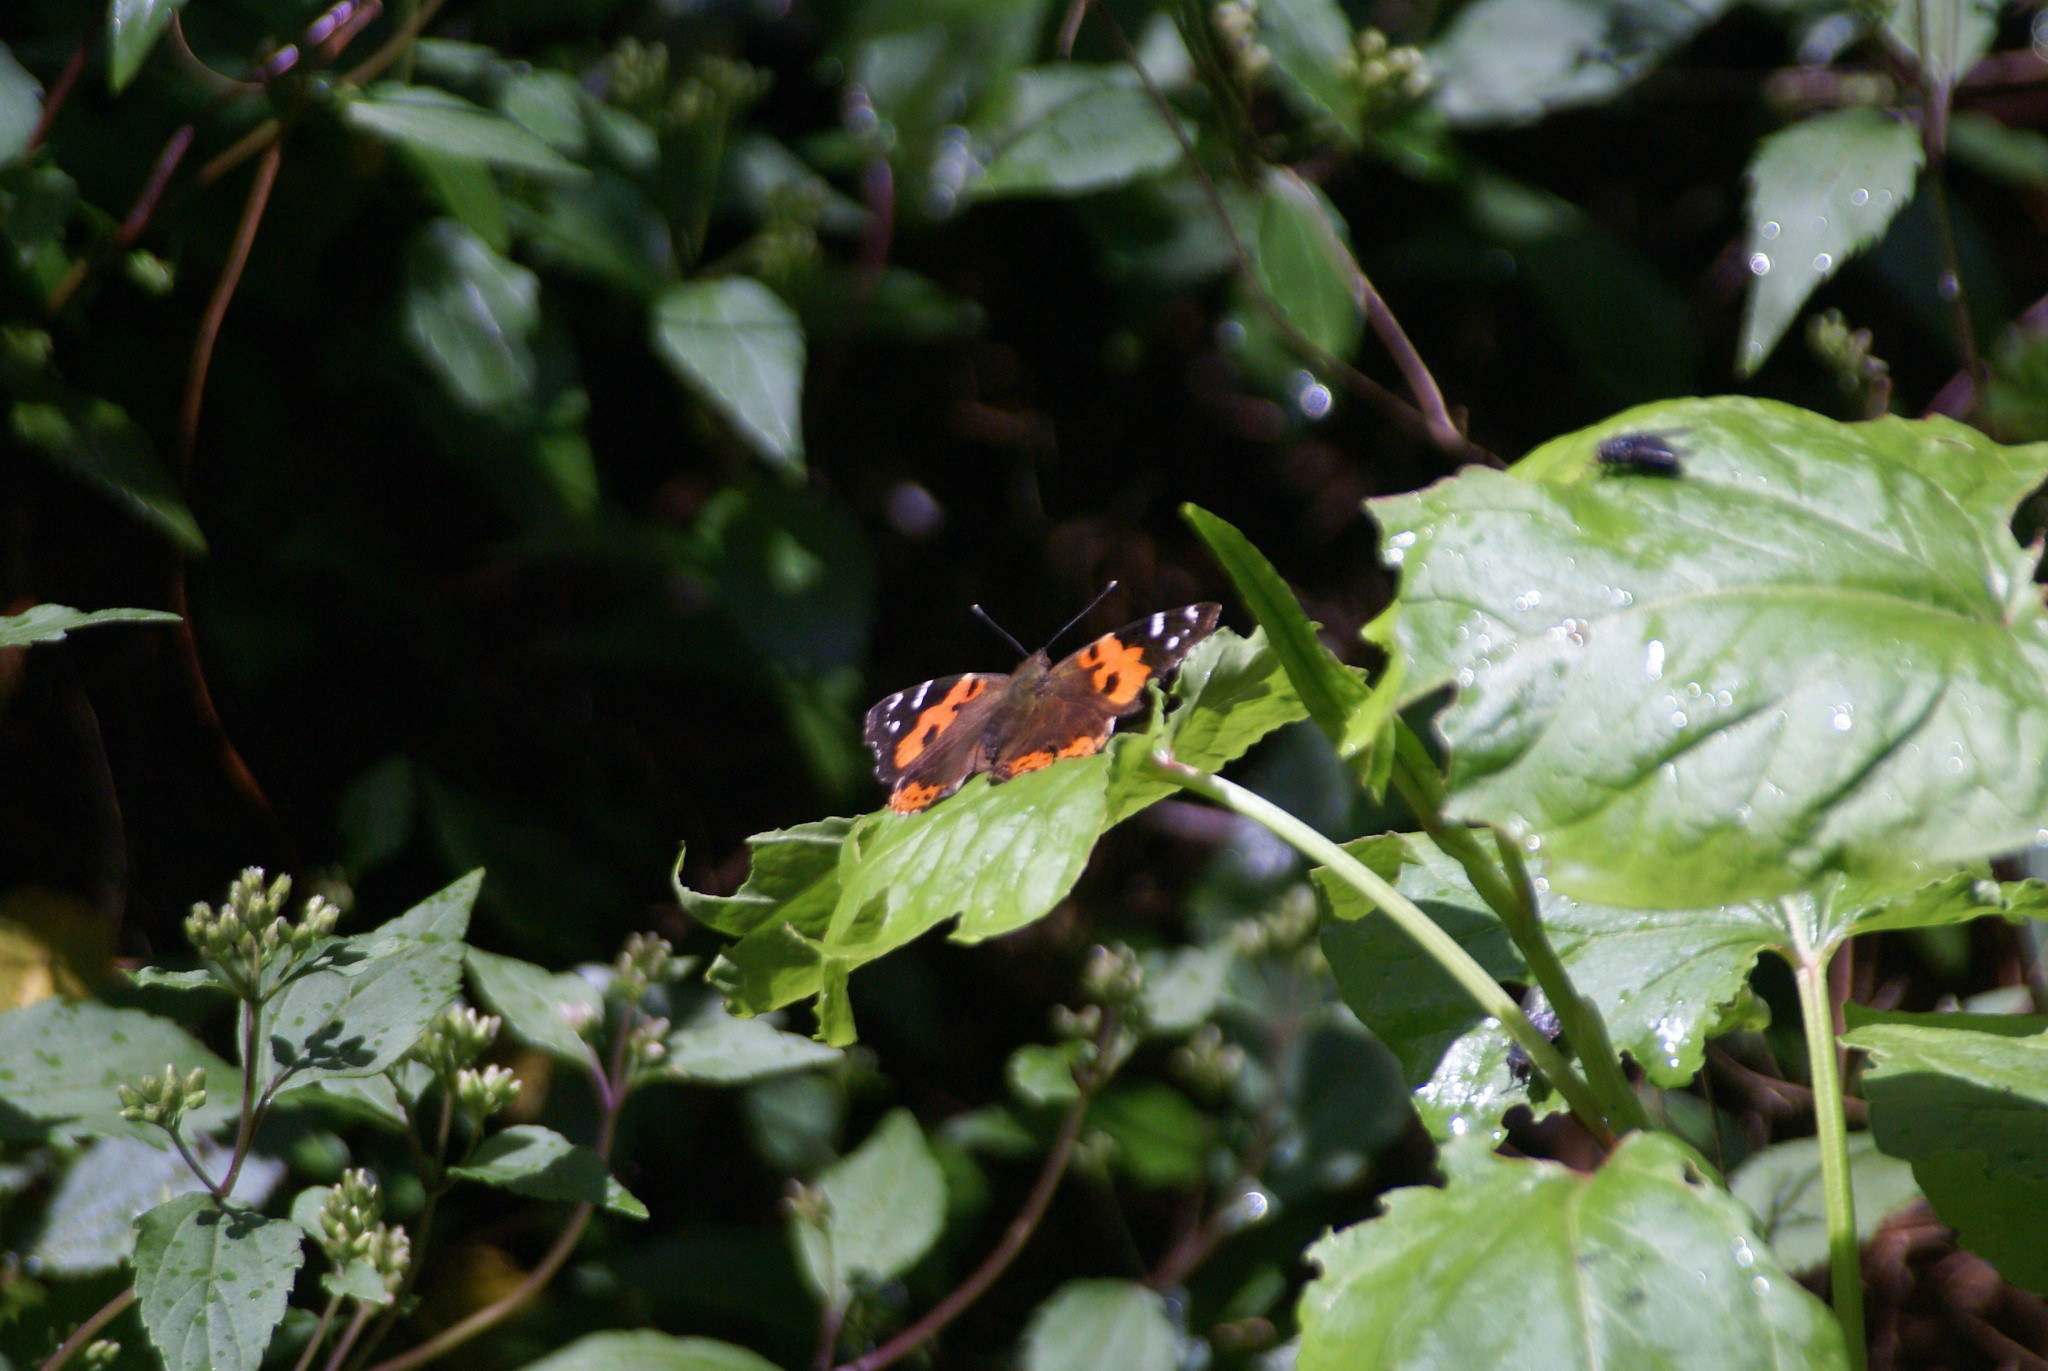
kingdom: Animalia
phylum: Arthropoda
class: Insecta
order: Lepidoptera
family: Nymphalidae
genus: Vanessa
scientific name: Vanessa vulcania
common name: Canary red admiral
